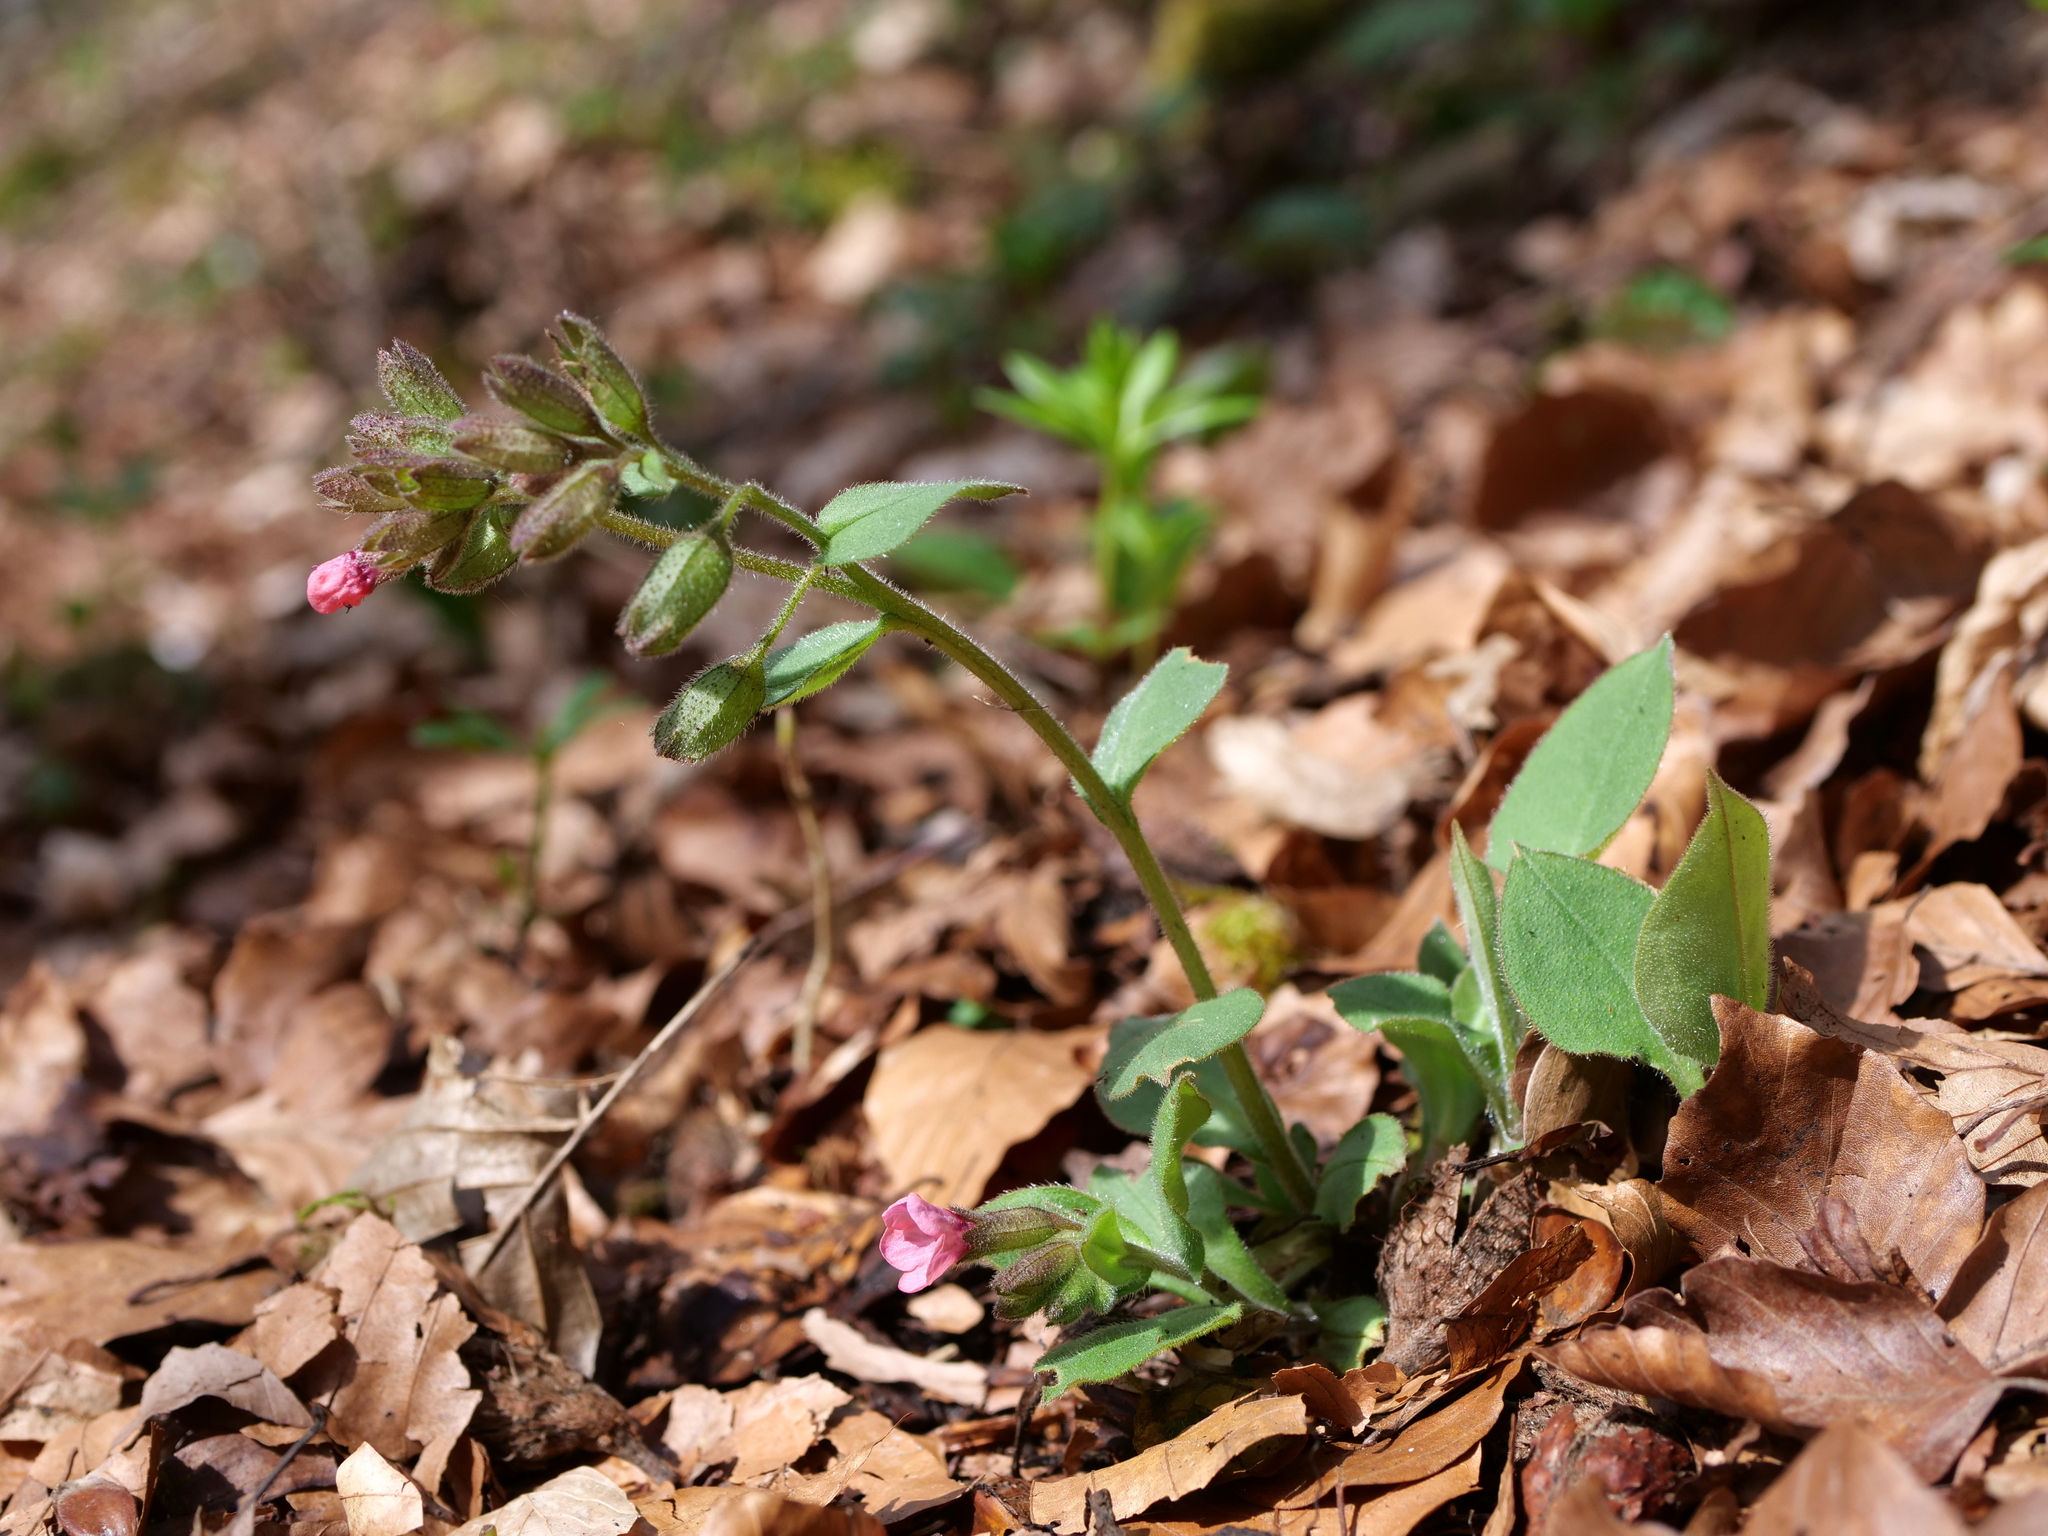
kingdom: Plantae
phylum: Tracheophyta
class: Magnoliopsida
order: Boraginales
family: Boraginaceae
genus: Pulmonaria
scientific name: Pulmonaria obscura
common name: Suffolk lungwort
